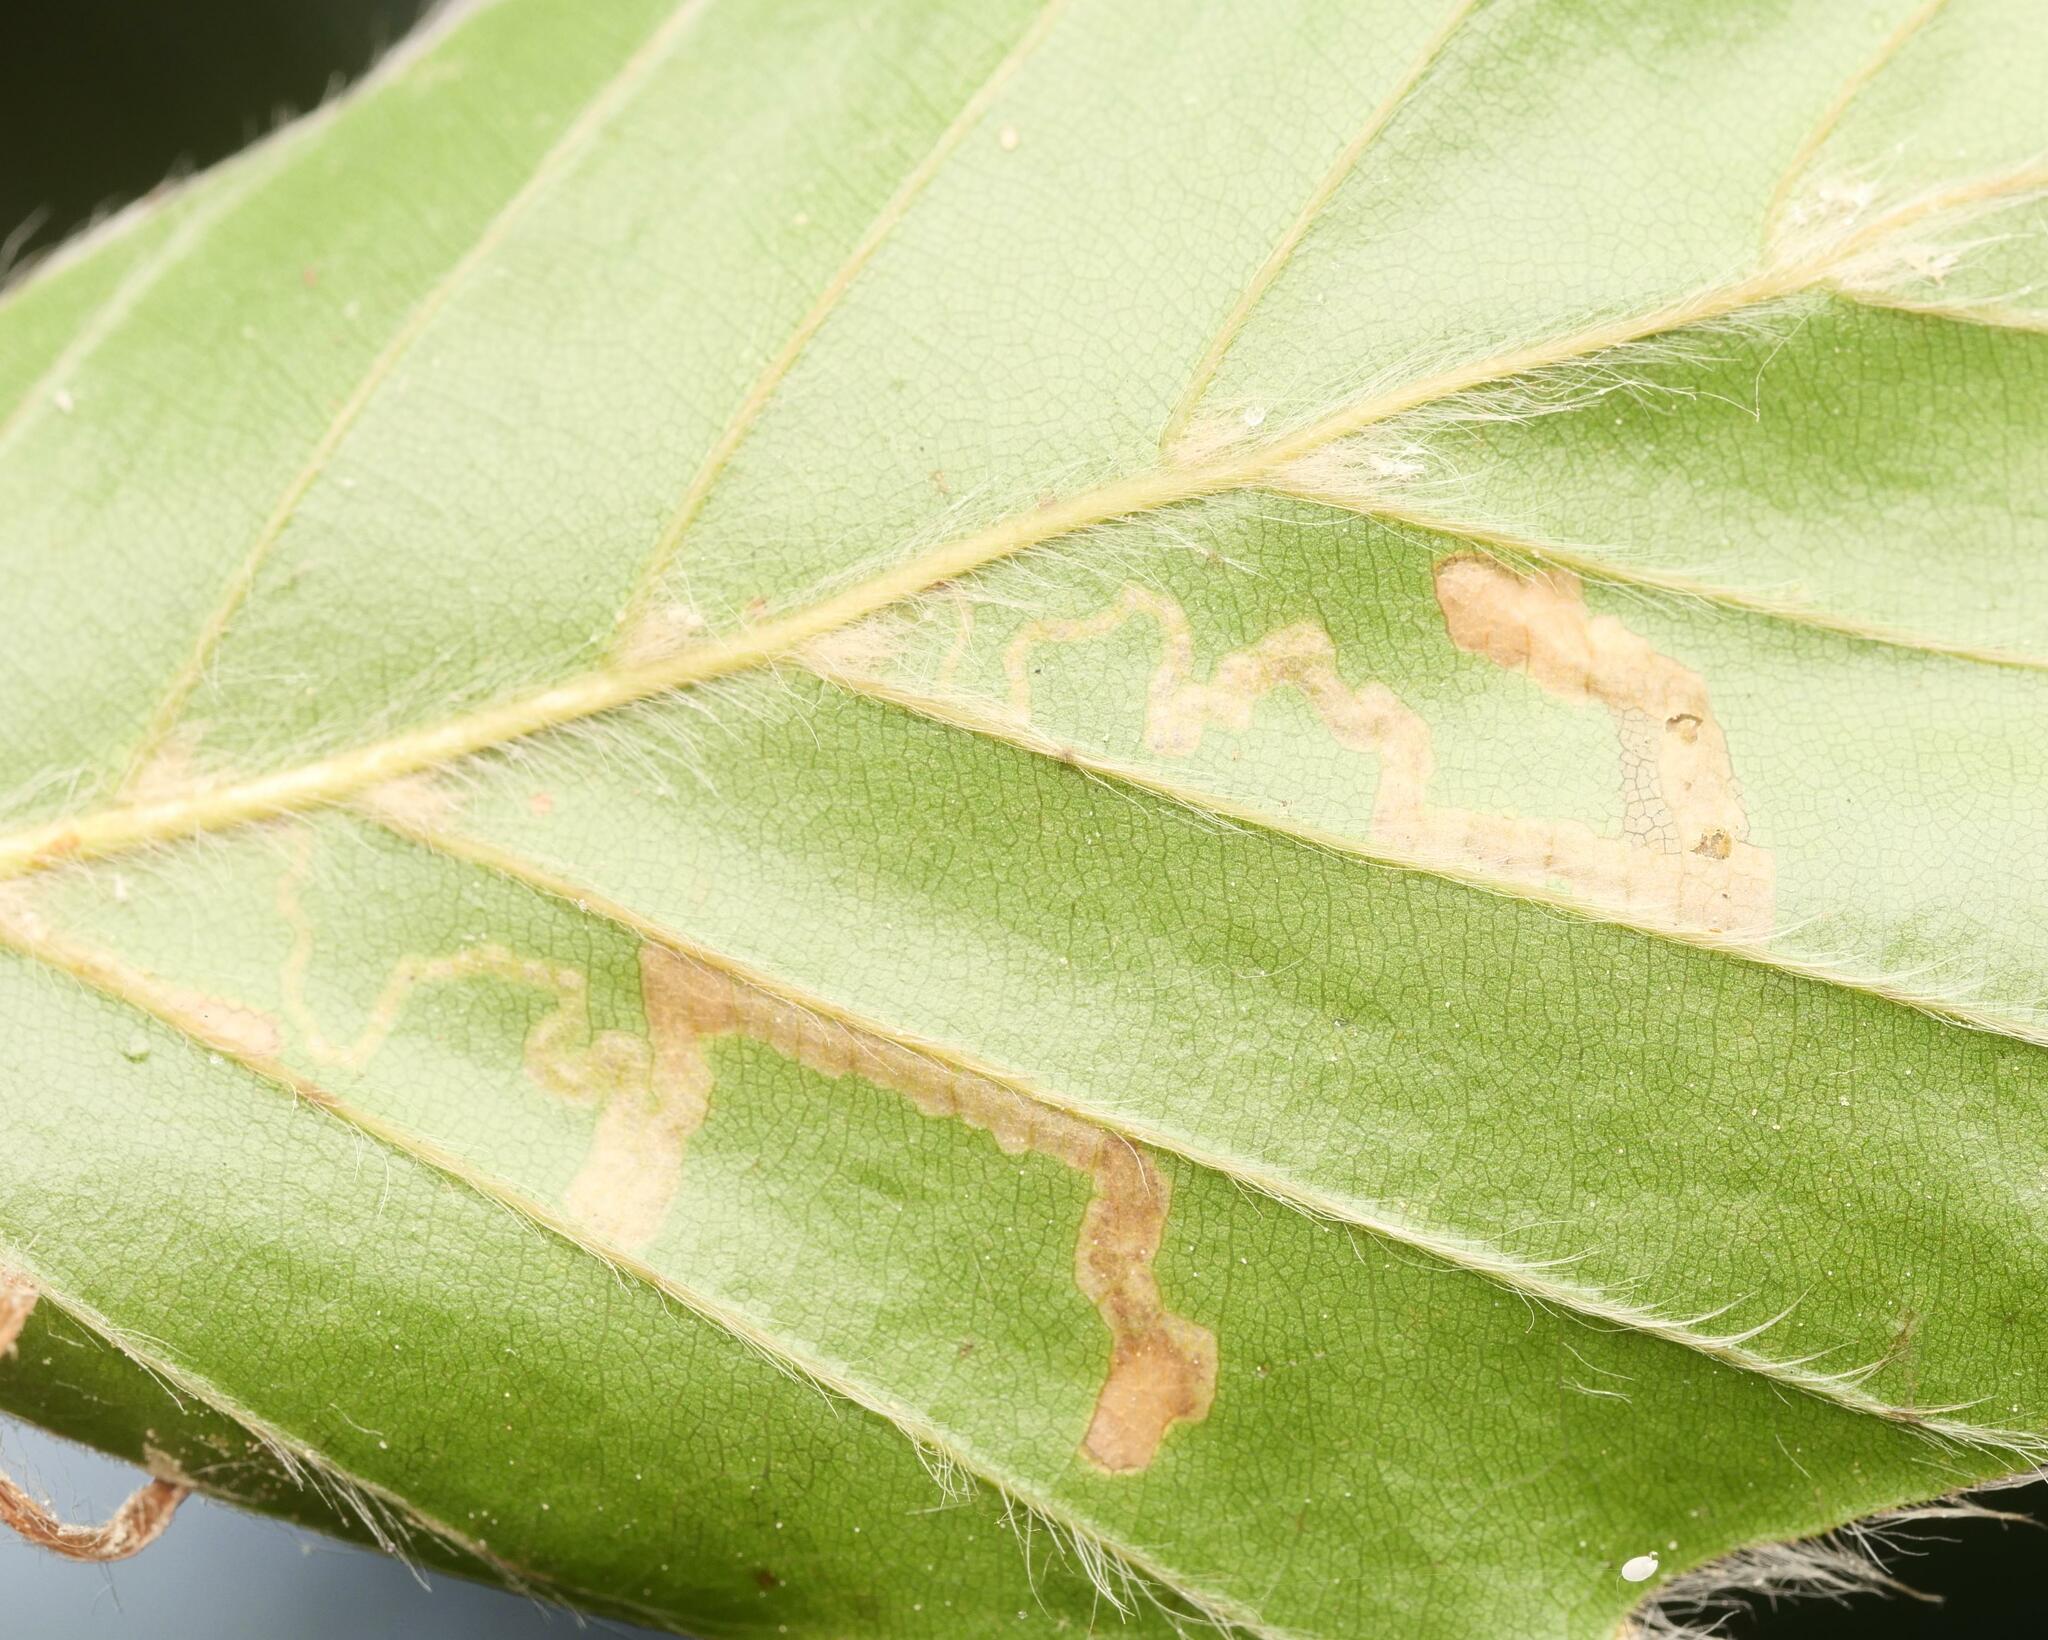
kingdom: Animalia
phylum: Arthropoda
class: Insecta
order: Lepidoptera
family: Nepticulidae
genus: Stigmella
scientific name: Stigmella hemargyrella
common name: Beech pigmy
